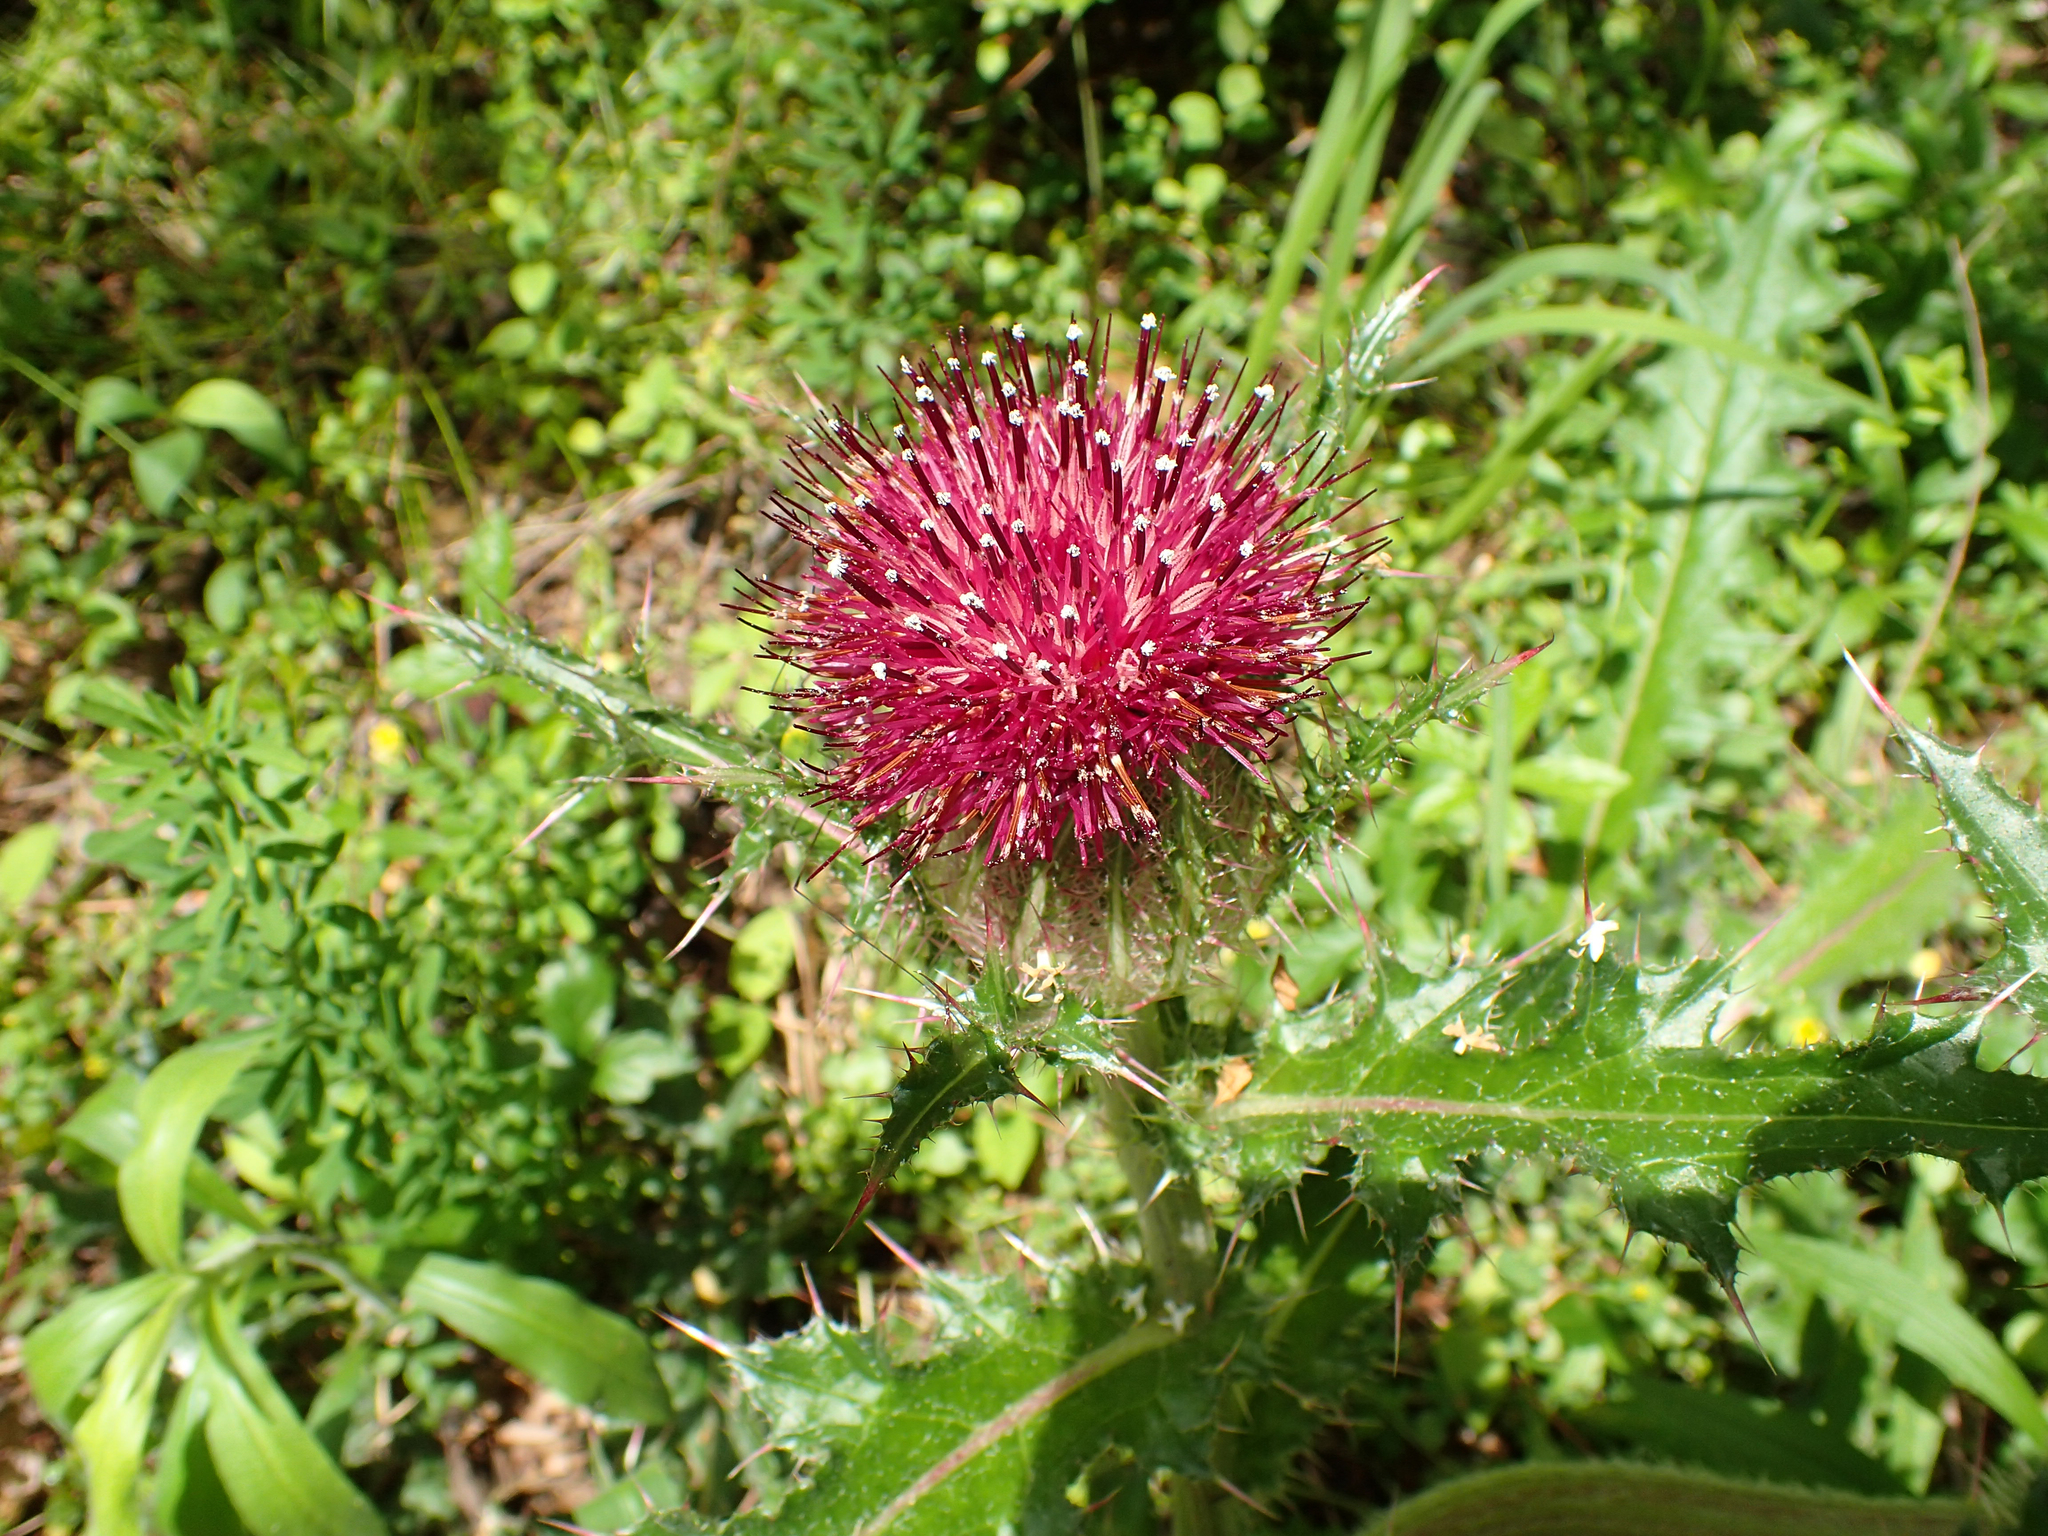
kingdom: Plantae
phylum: Tracheophyta
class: Magnoliopsida
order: Asterales
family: Asteraceae
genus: Cirsium
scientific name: Cirsium horridulum
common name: Bristly thistle
